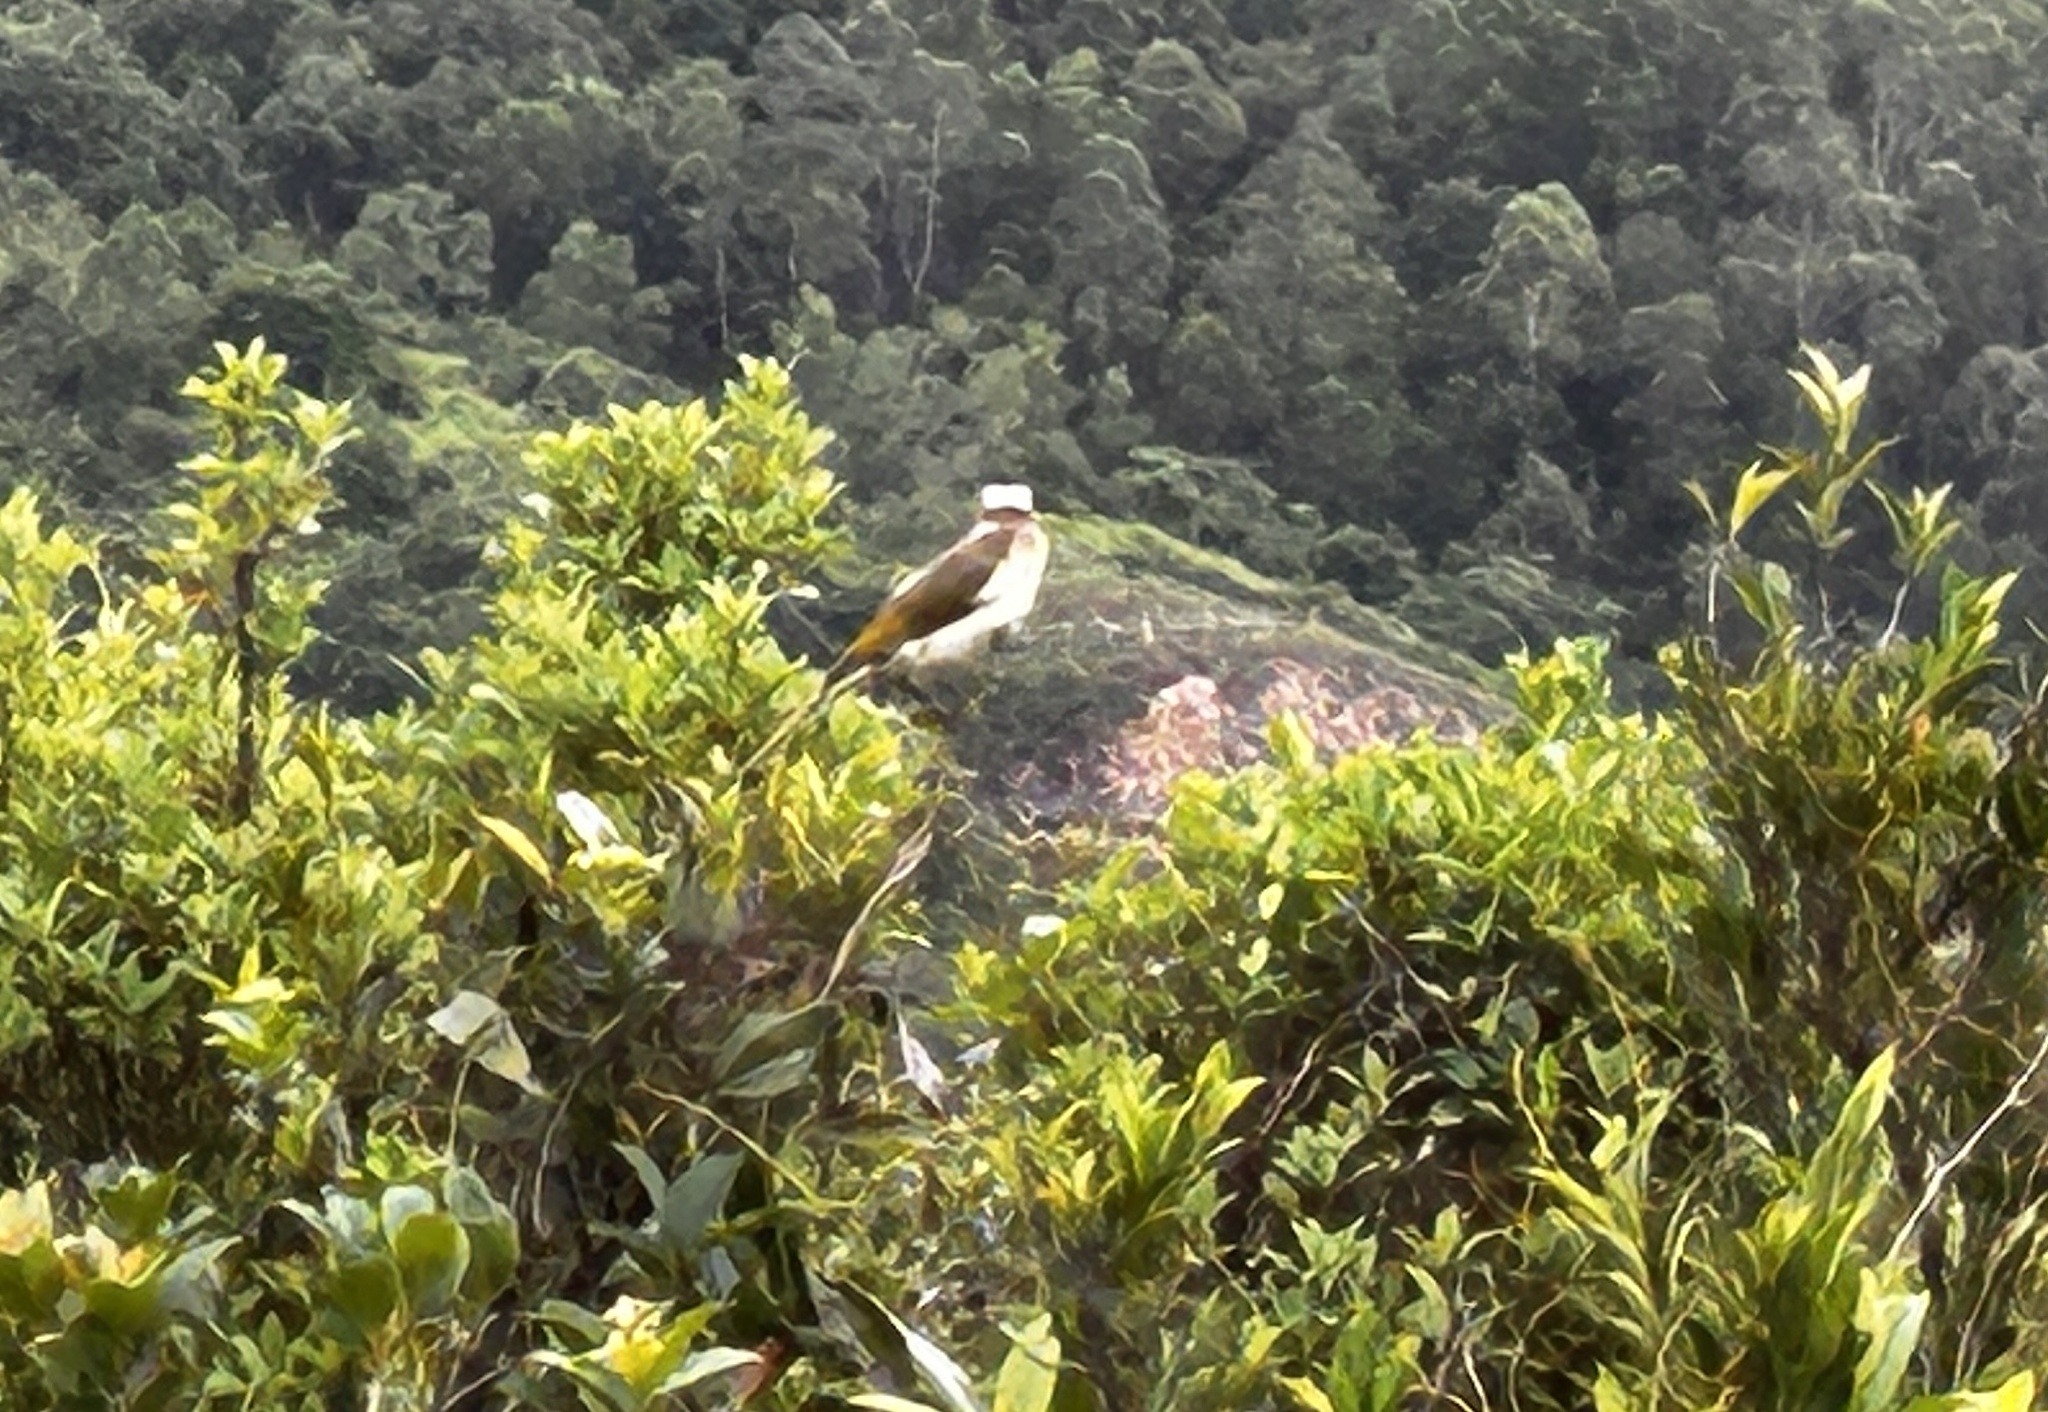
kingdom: Animalia
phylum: Chordata
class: Aves
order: Passeriformes
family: Pycnonotidae
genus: Pycnonotus
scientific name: Pycnonotus sinensis
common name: Light-vented bulbul
